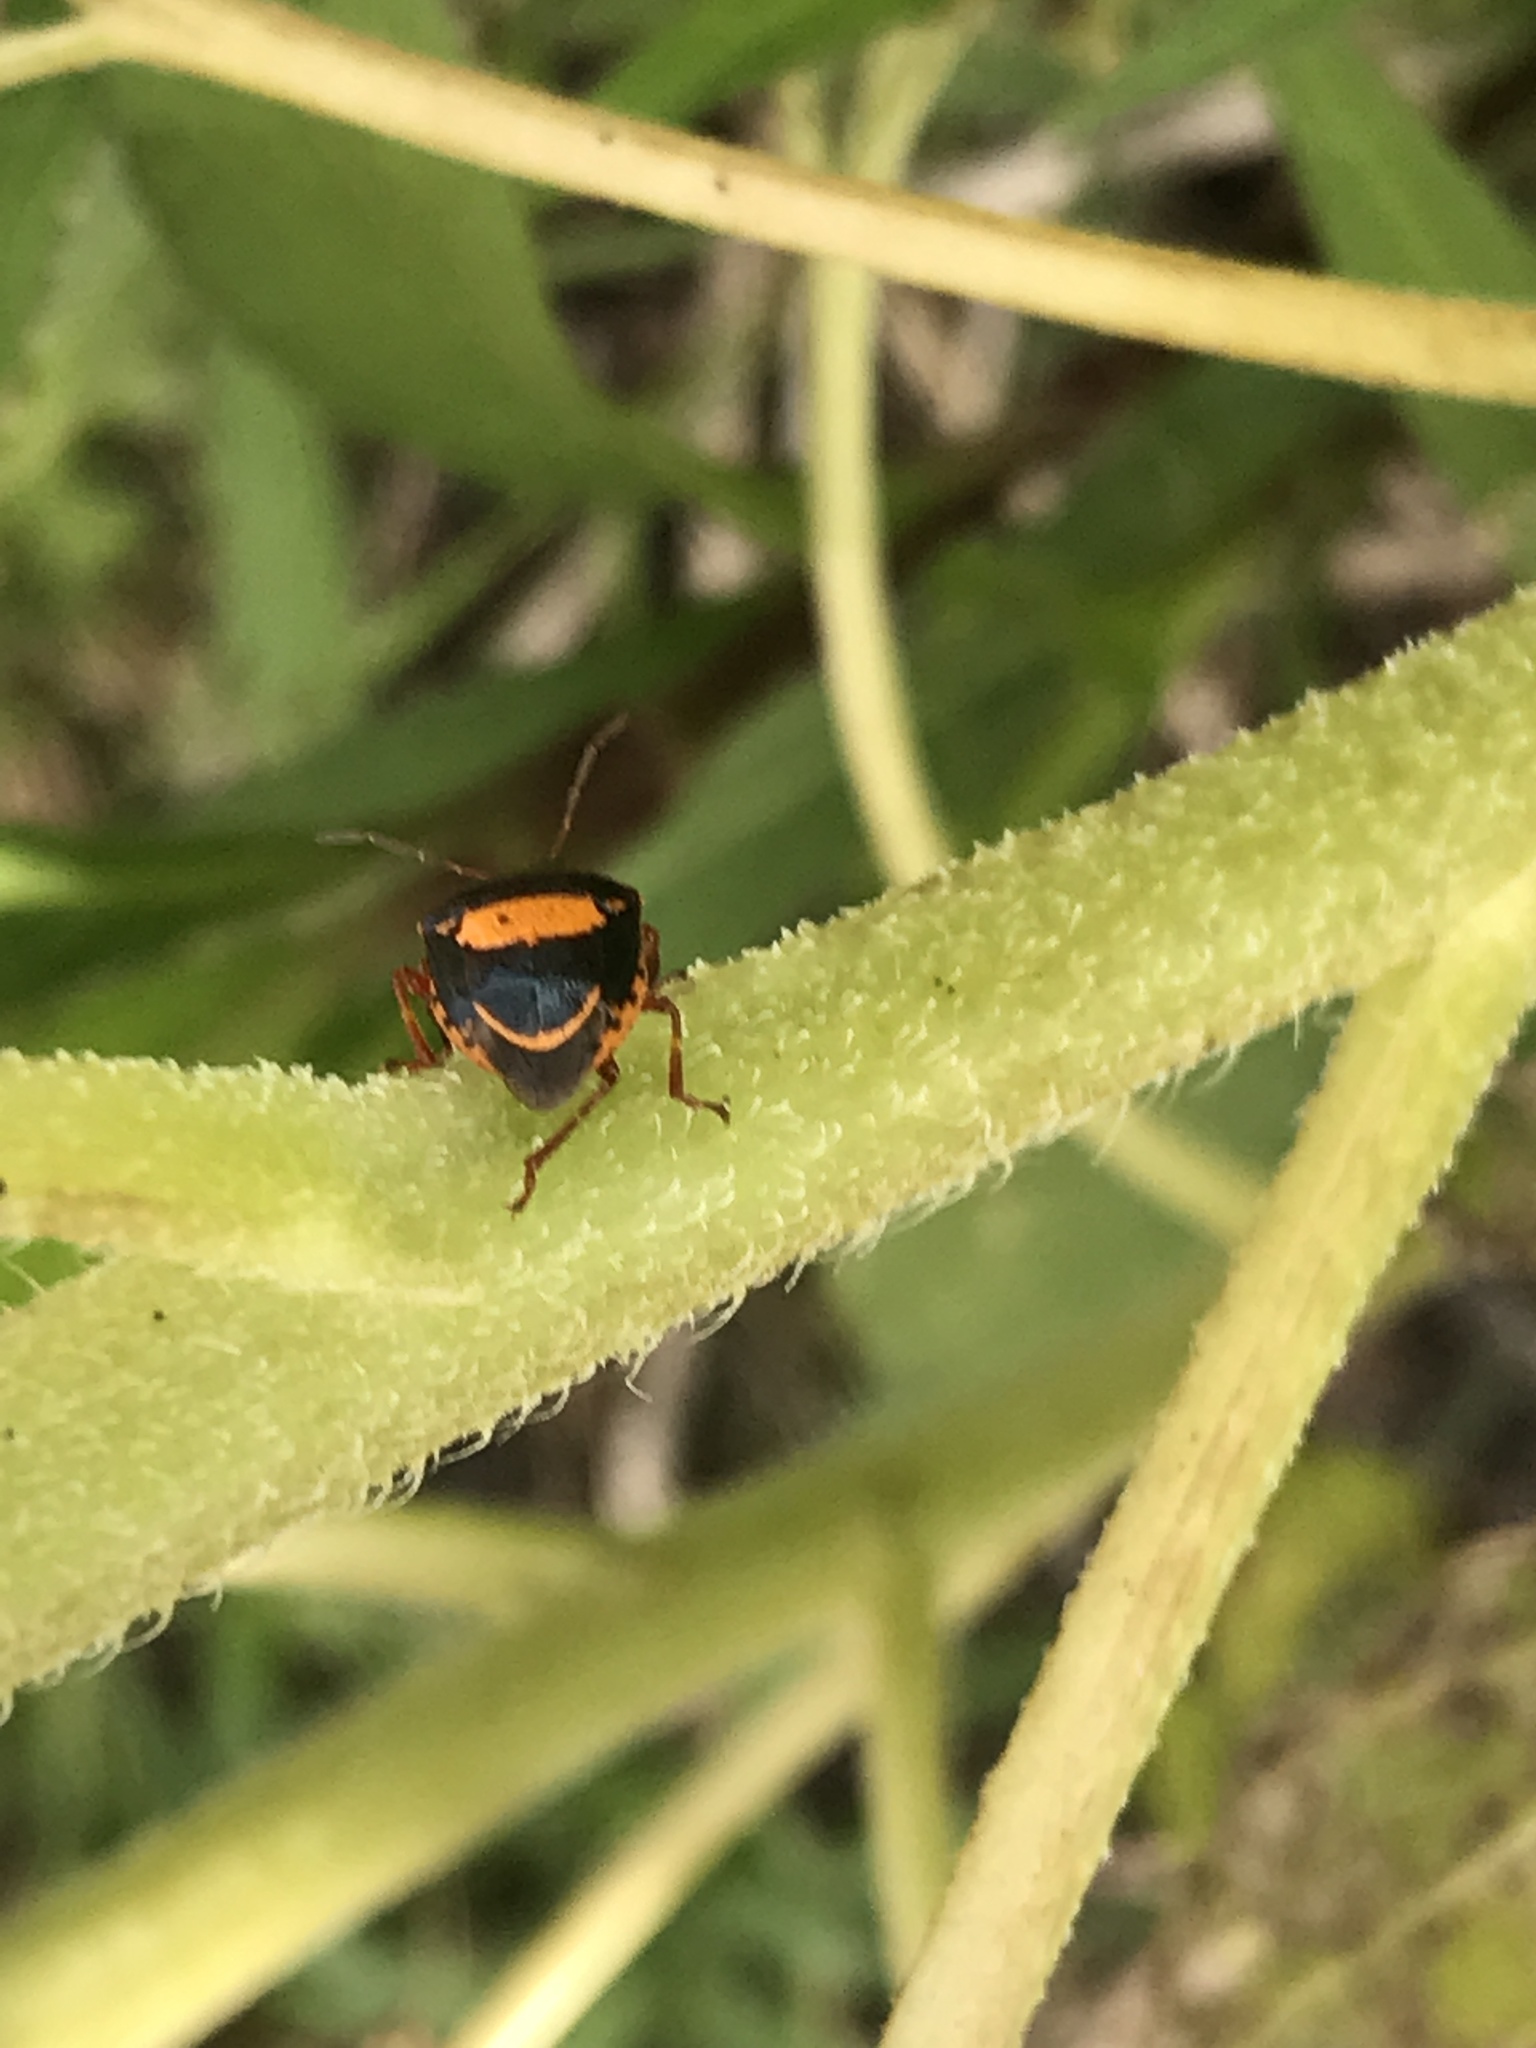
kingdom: Animalia
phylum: Arthropoda
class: Insecta
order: Hemiptera
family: Pentatomidae
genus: Stiretrus
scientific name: Stiretrus anchorago
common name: Anchor stink bug
